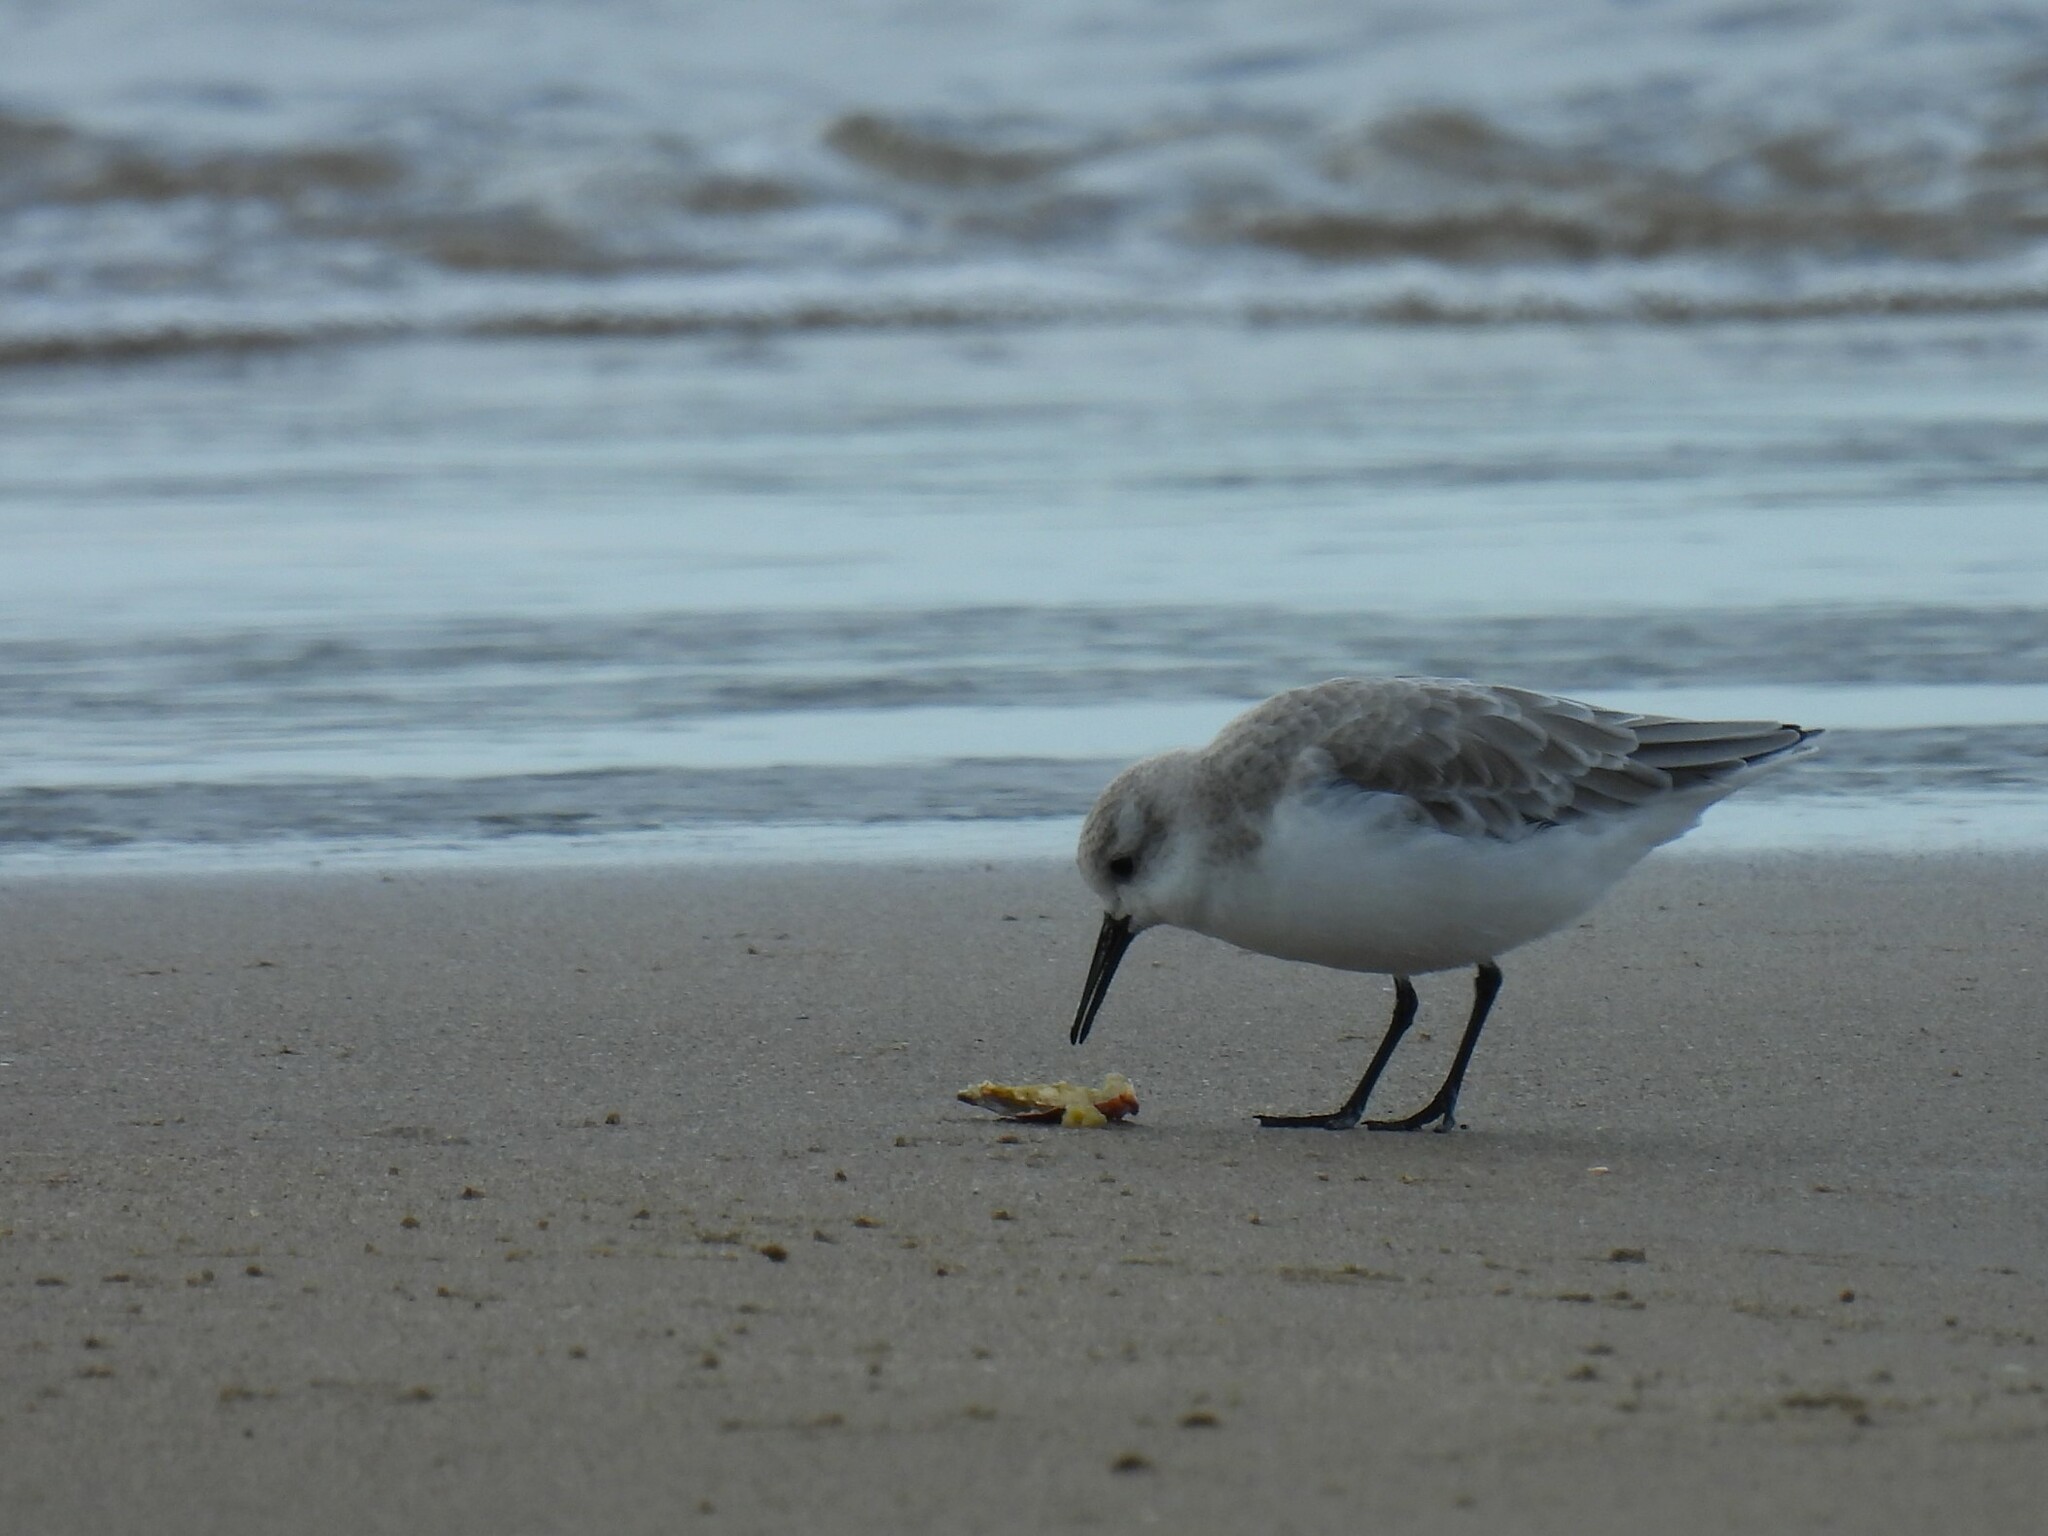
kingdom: Animalia
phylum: Chordata
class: Aves
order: Charadriiformes
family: Scolopacidae
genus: Calidris
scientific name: Calidris alba
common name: Sanderling
